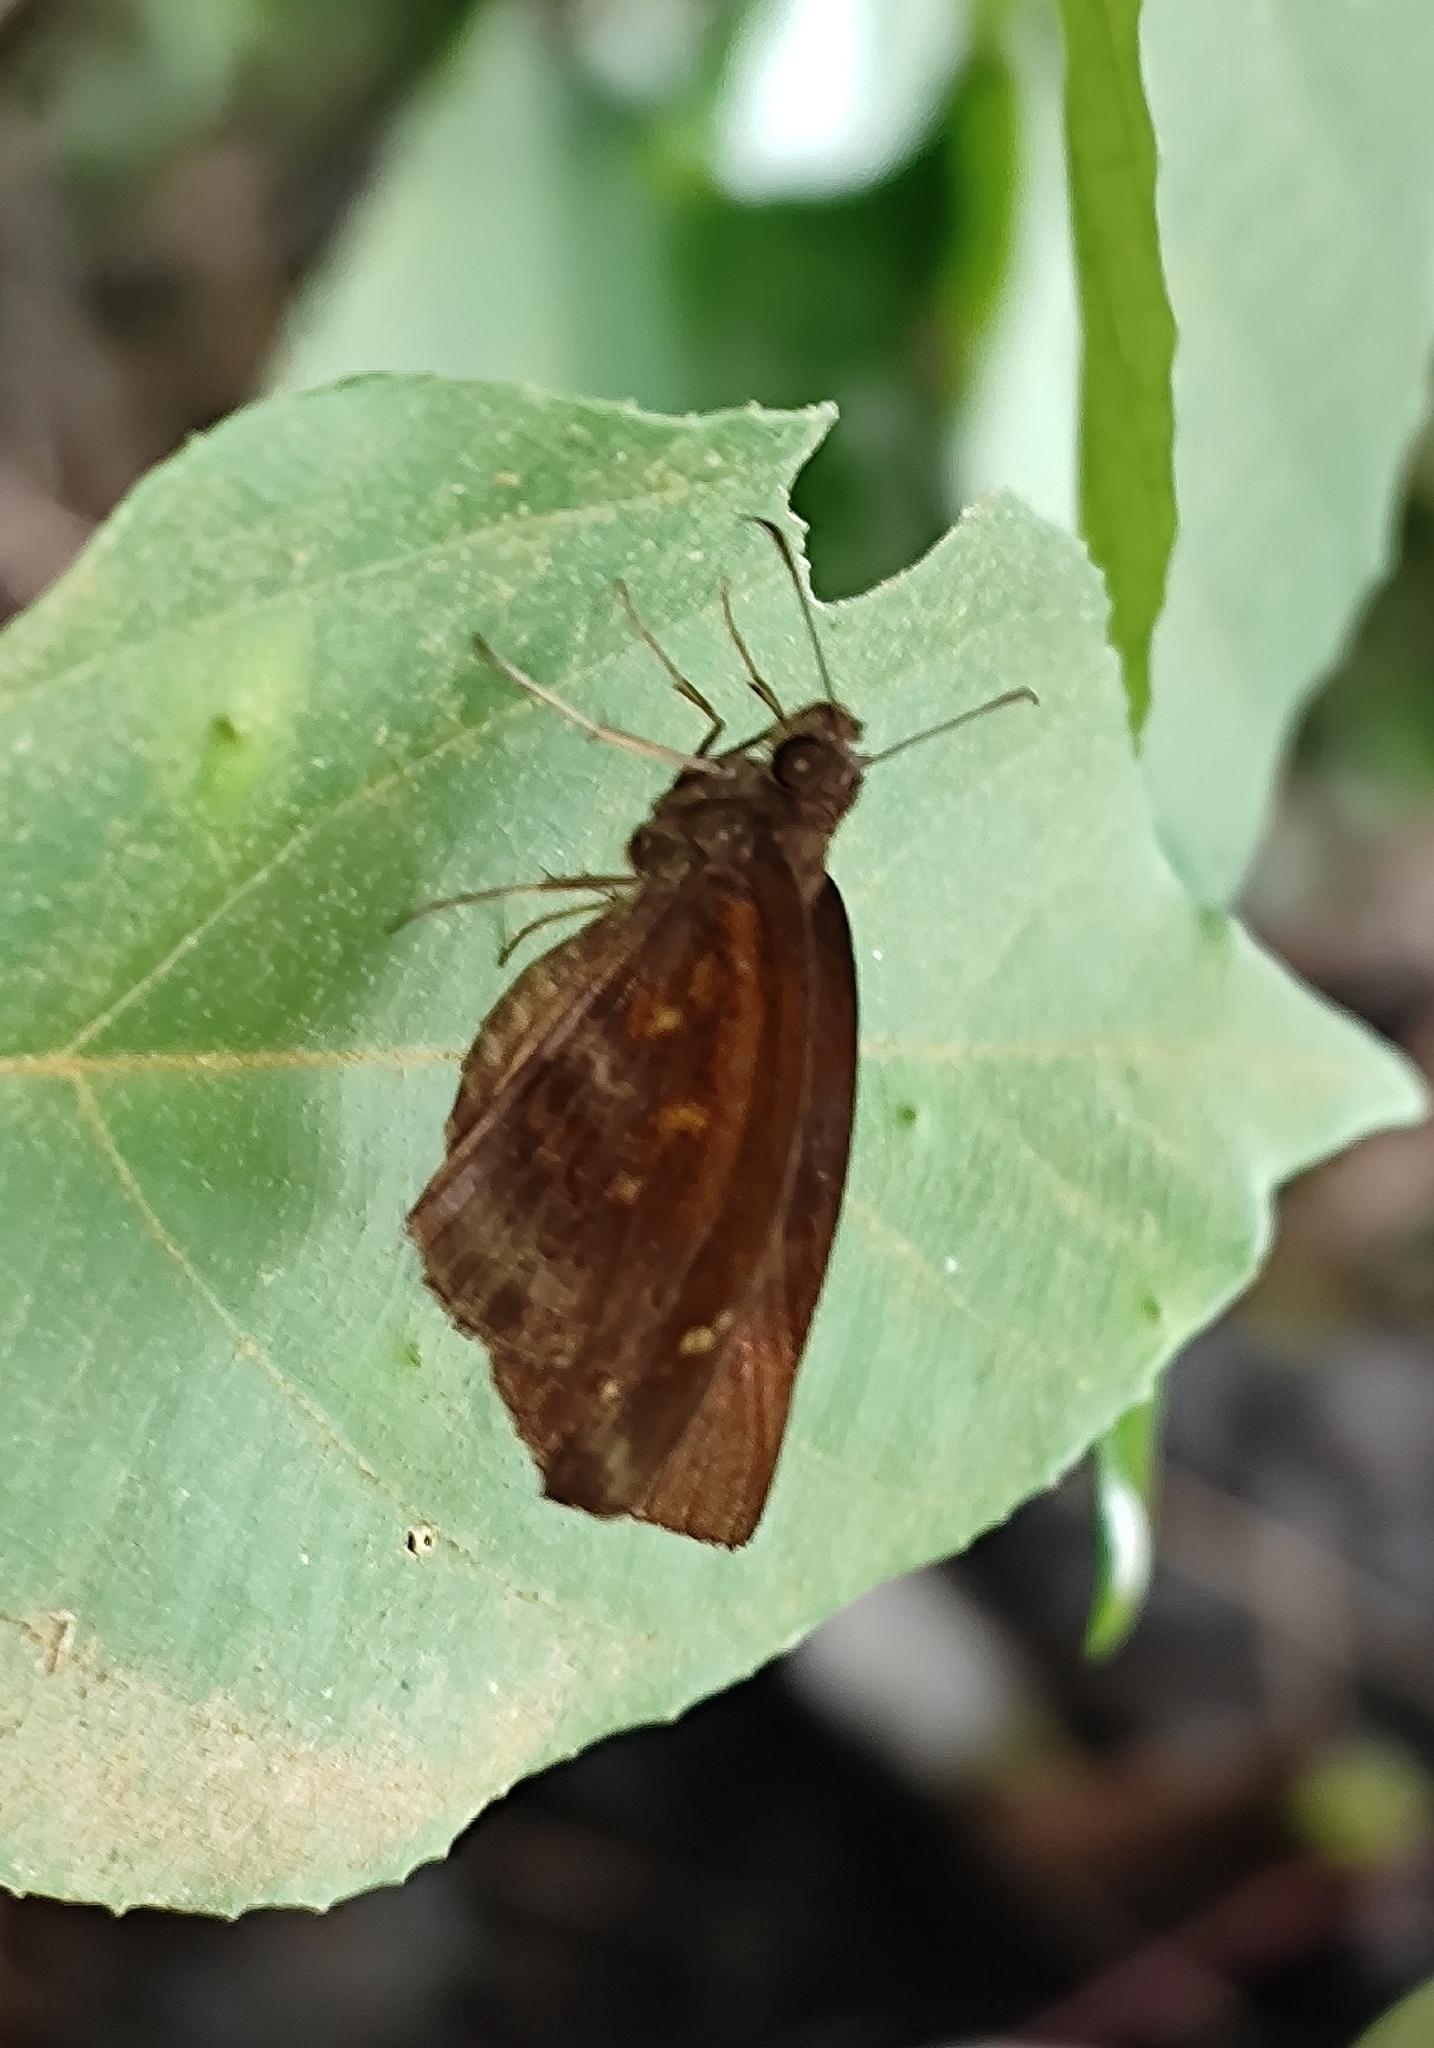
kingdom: Animalia
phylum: Arthropoda
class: Insecta
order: Lepidoptera
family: Hesperiidae
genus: Psolos
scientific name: Psolos fuligo
